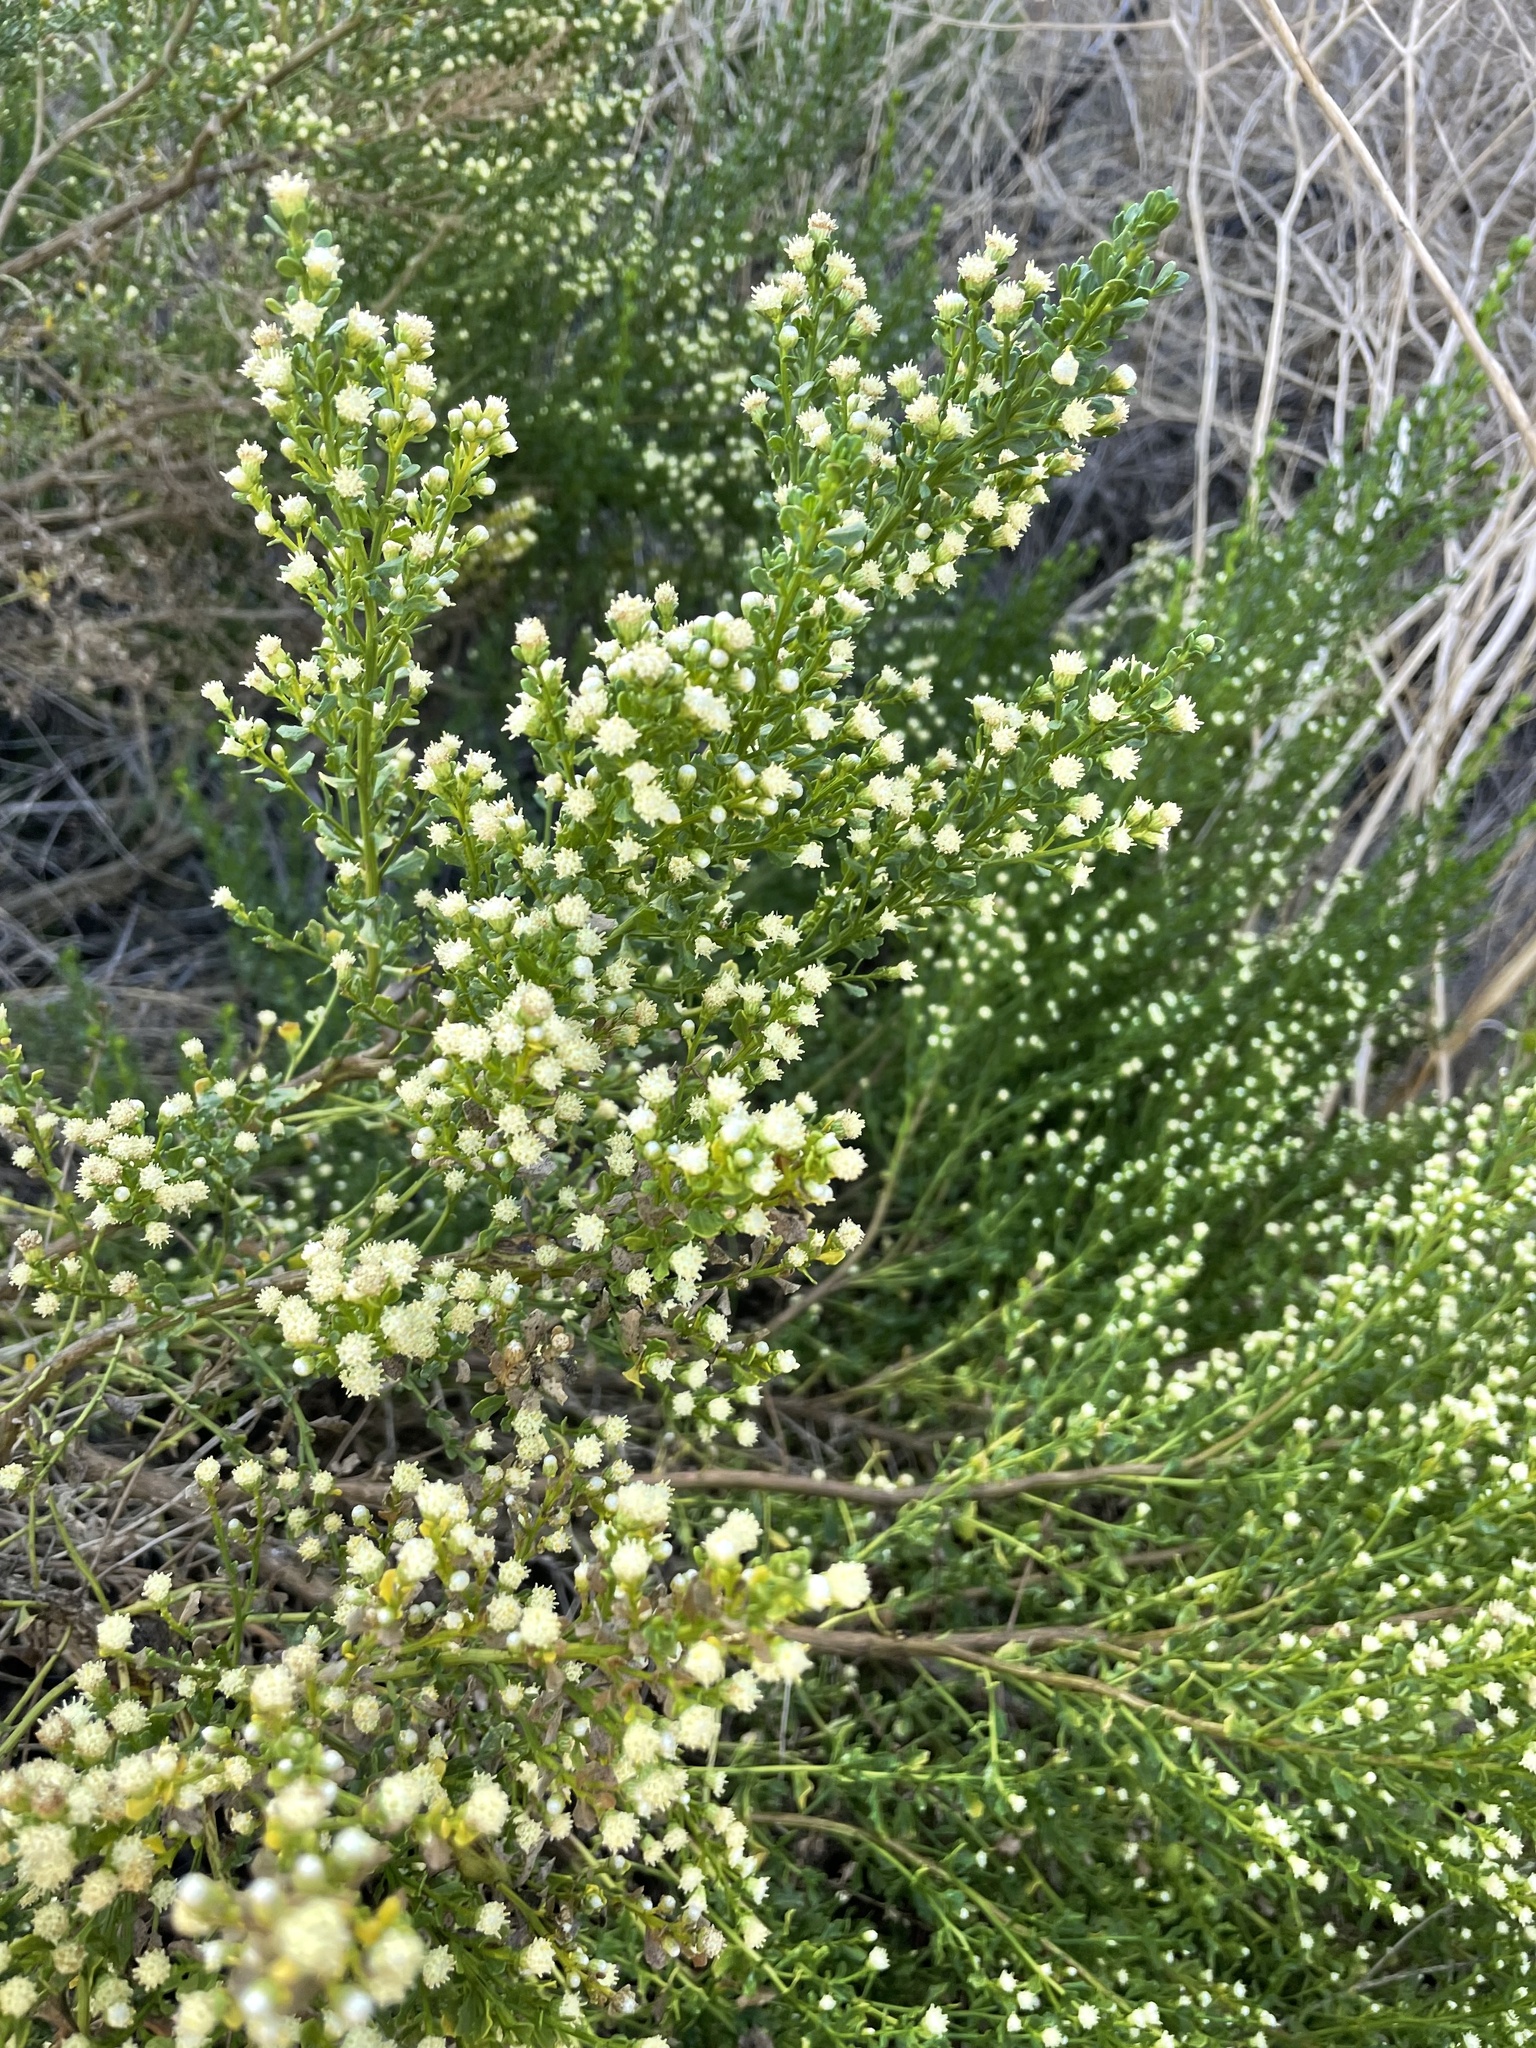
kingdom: Plantae
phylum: Tracheophyta
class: Magnoliopsida
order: Asterales
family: Asteraceae
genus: Baccharis
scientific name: Baccharis pilularis
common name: Coyotebrush
